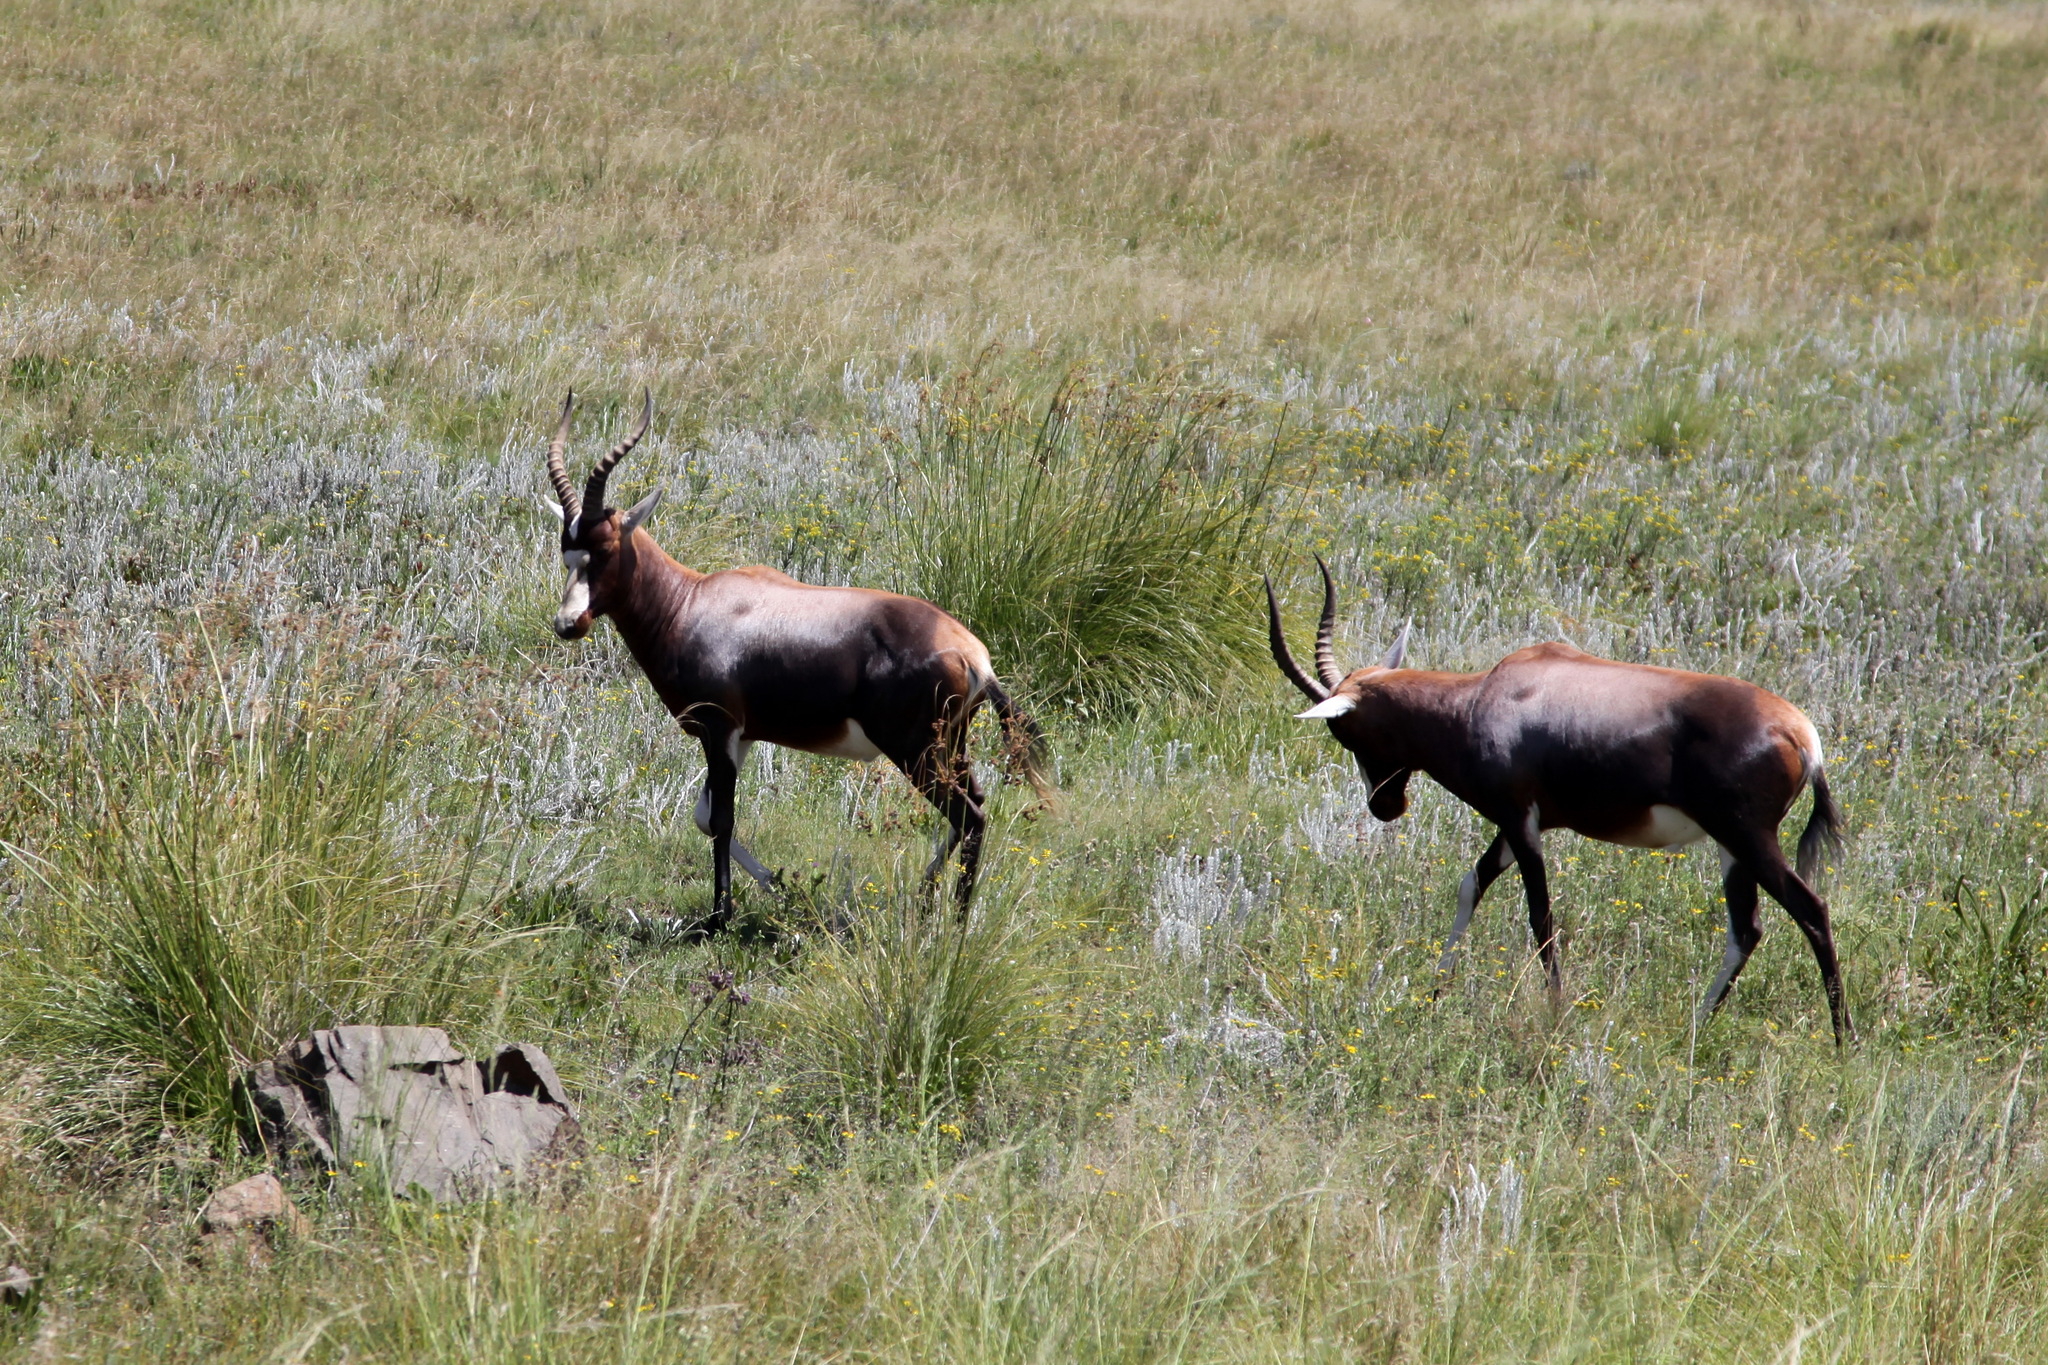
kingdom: Animalia
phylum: Chordata
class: Mammalia
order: Artiodactyla
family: Bovidae
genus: Damaliscus
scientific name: Damaliscus pygargus
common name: Bontebok
